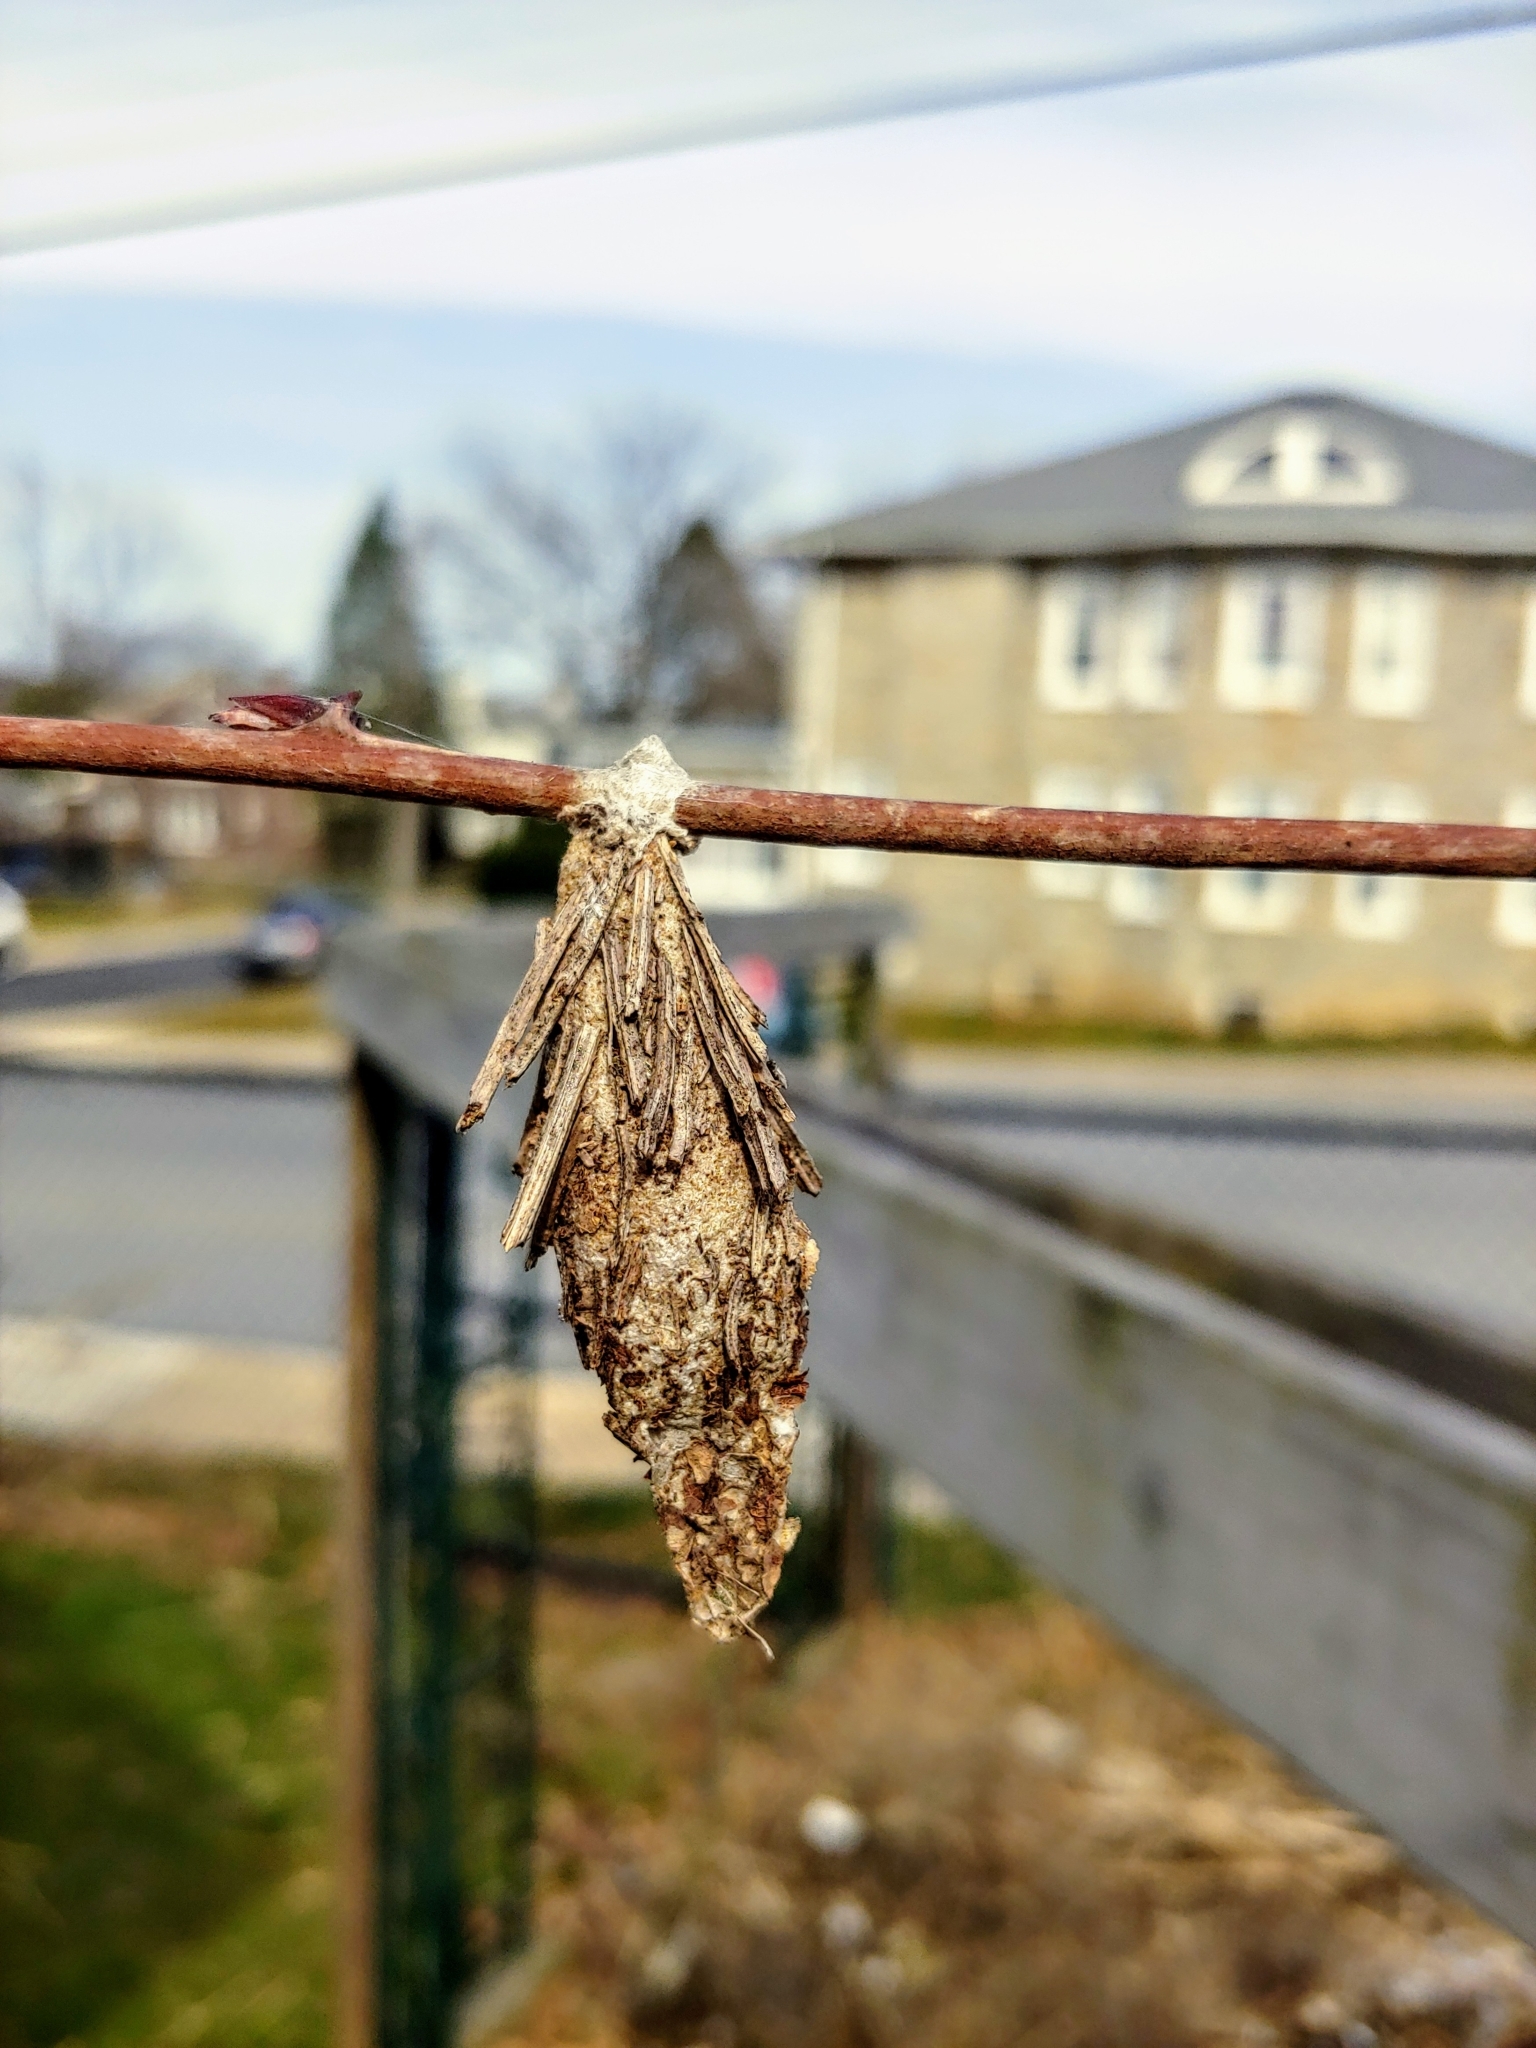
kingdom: Animalia
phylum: Arthropoda
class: Insecta
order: Lepidoptera
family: Psychidae
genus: Thyridopteryx
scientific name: Thyridopteryx ephemeraeformis
